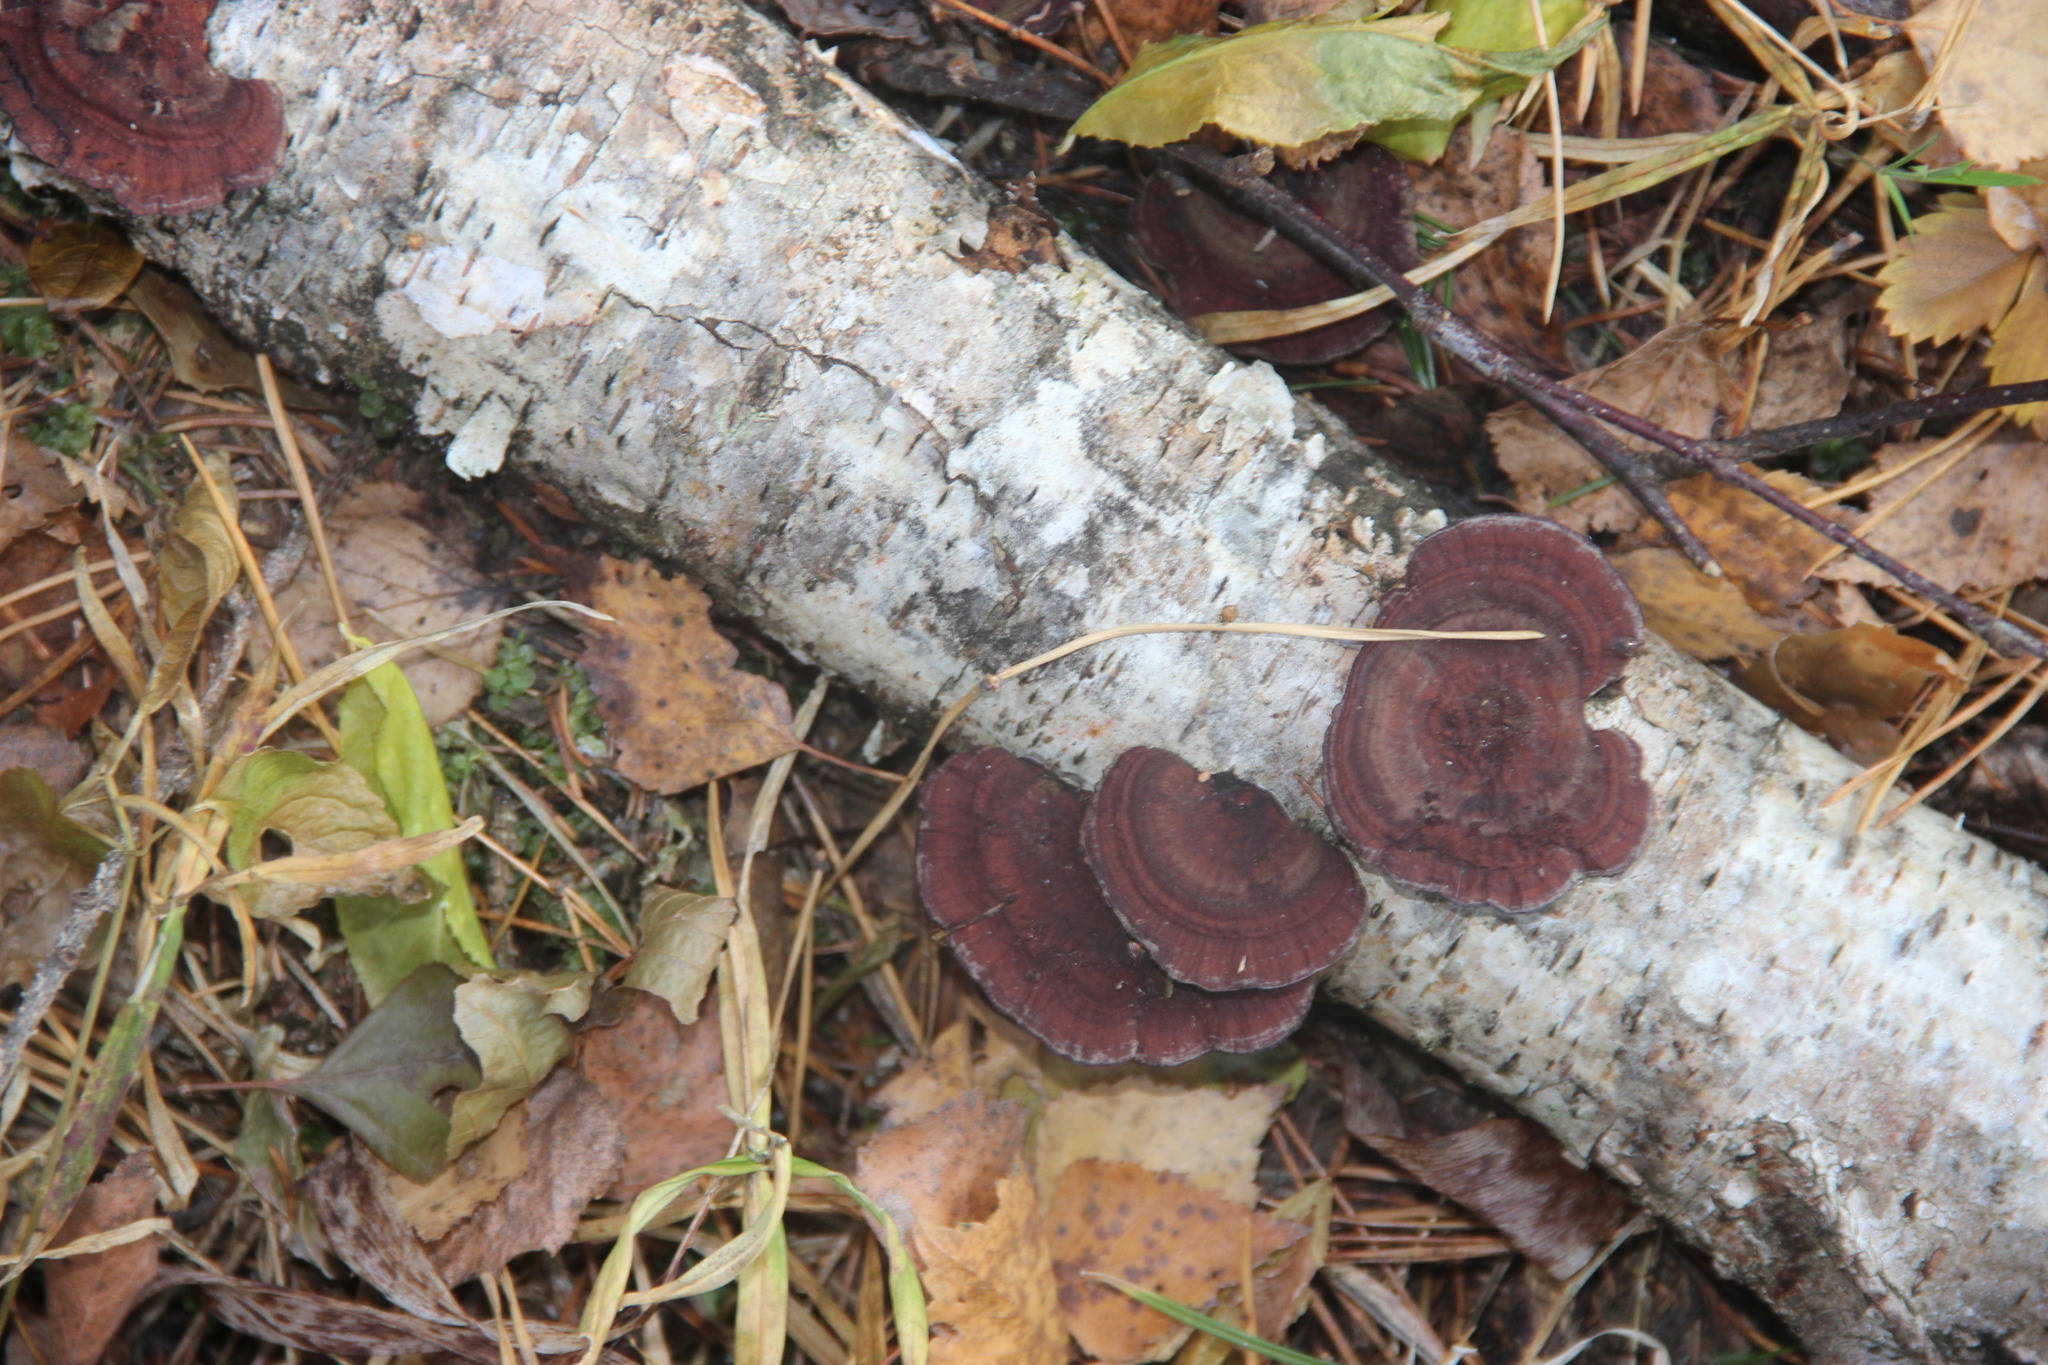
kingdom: Fungi
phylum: Basidiomycota
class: Agaricomycetes
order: Polyporales
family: Polyporaceae
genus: Daedaleopsis
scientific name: Daedaleopsis tricolor
